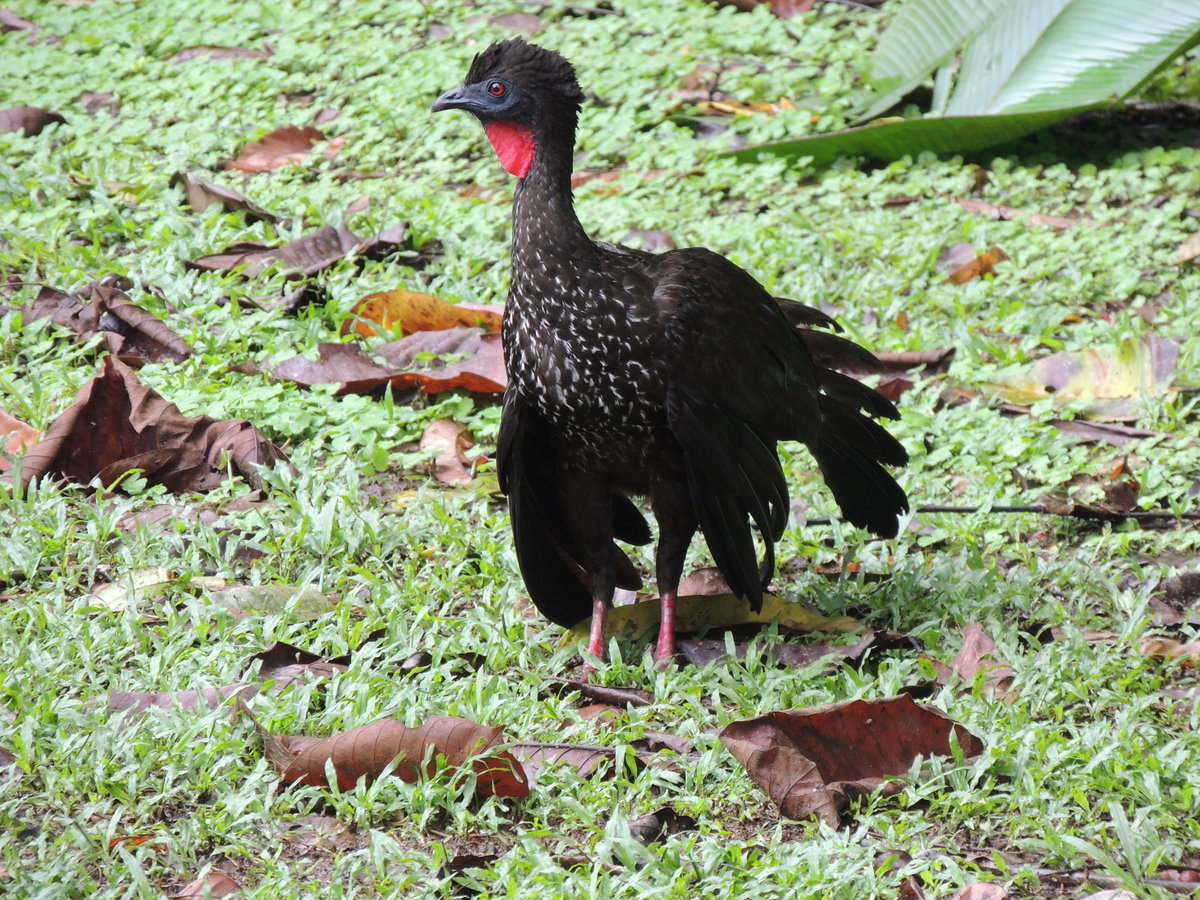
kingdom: Animalia
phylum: Chordata
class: Aves
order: Galliformes
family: Cracidae
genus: Penelope
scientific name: Penelope purpurascens
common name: Crested guan
